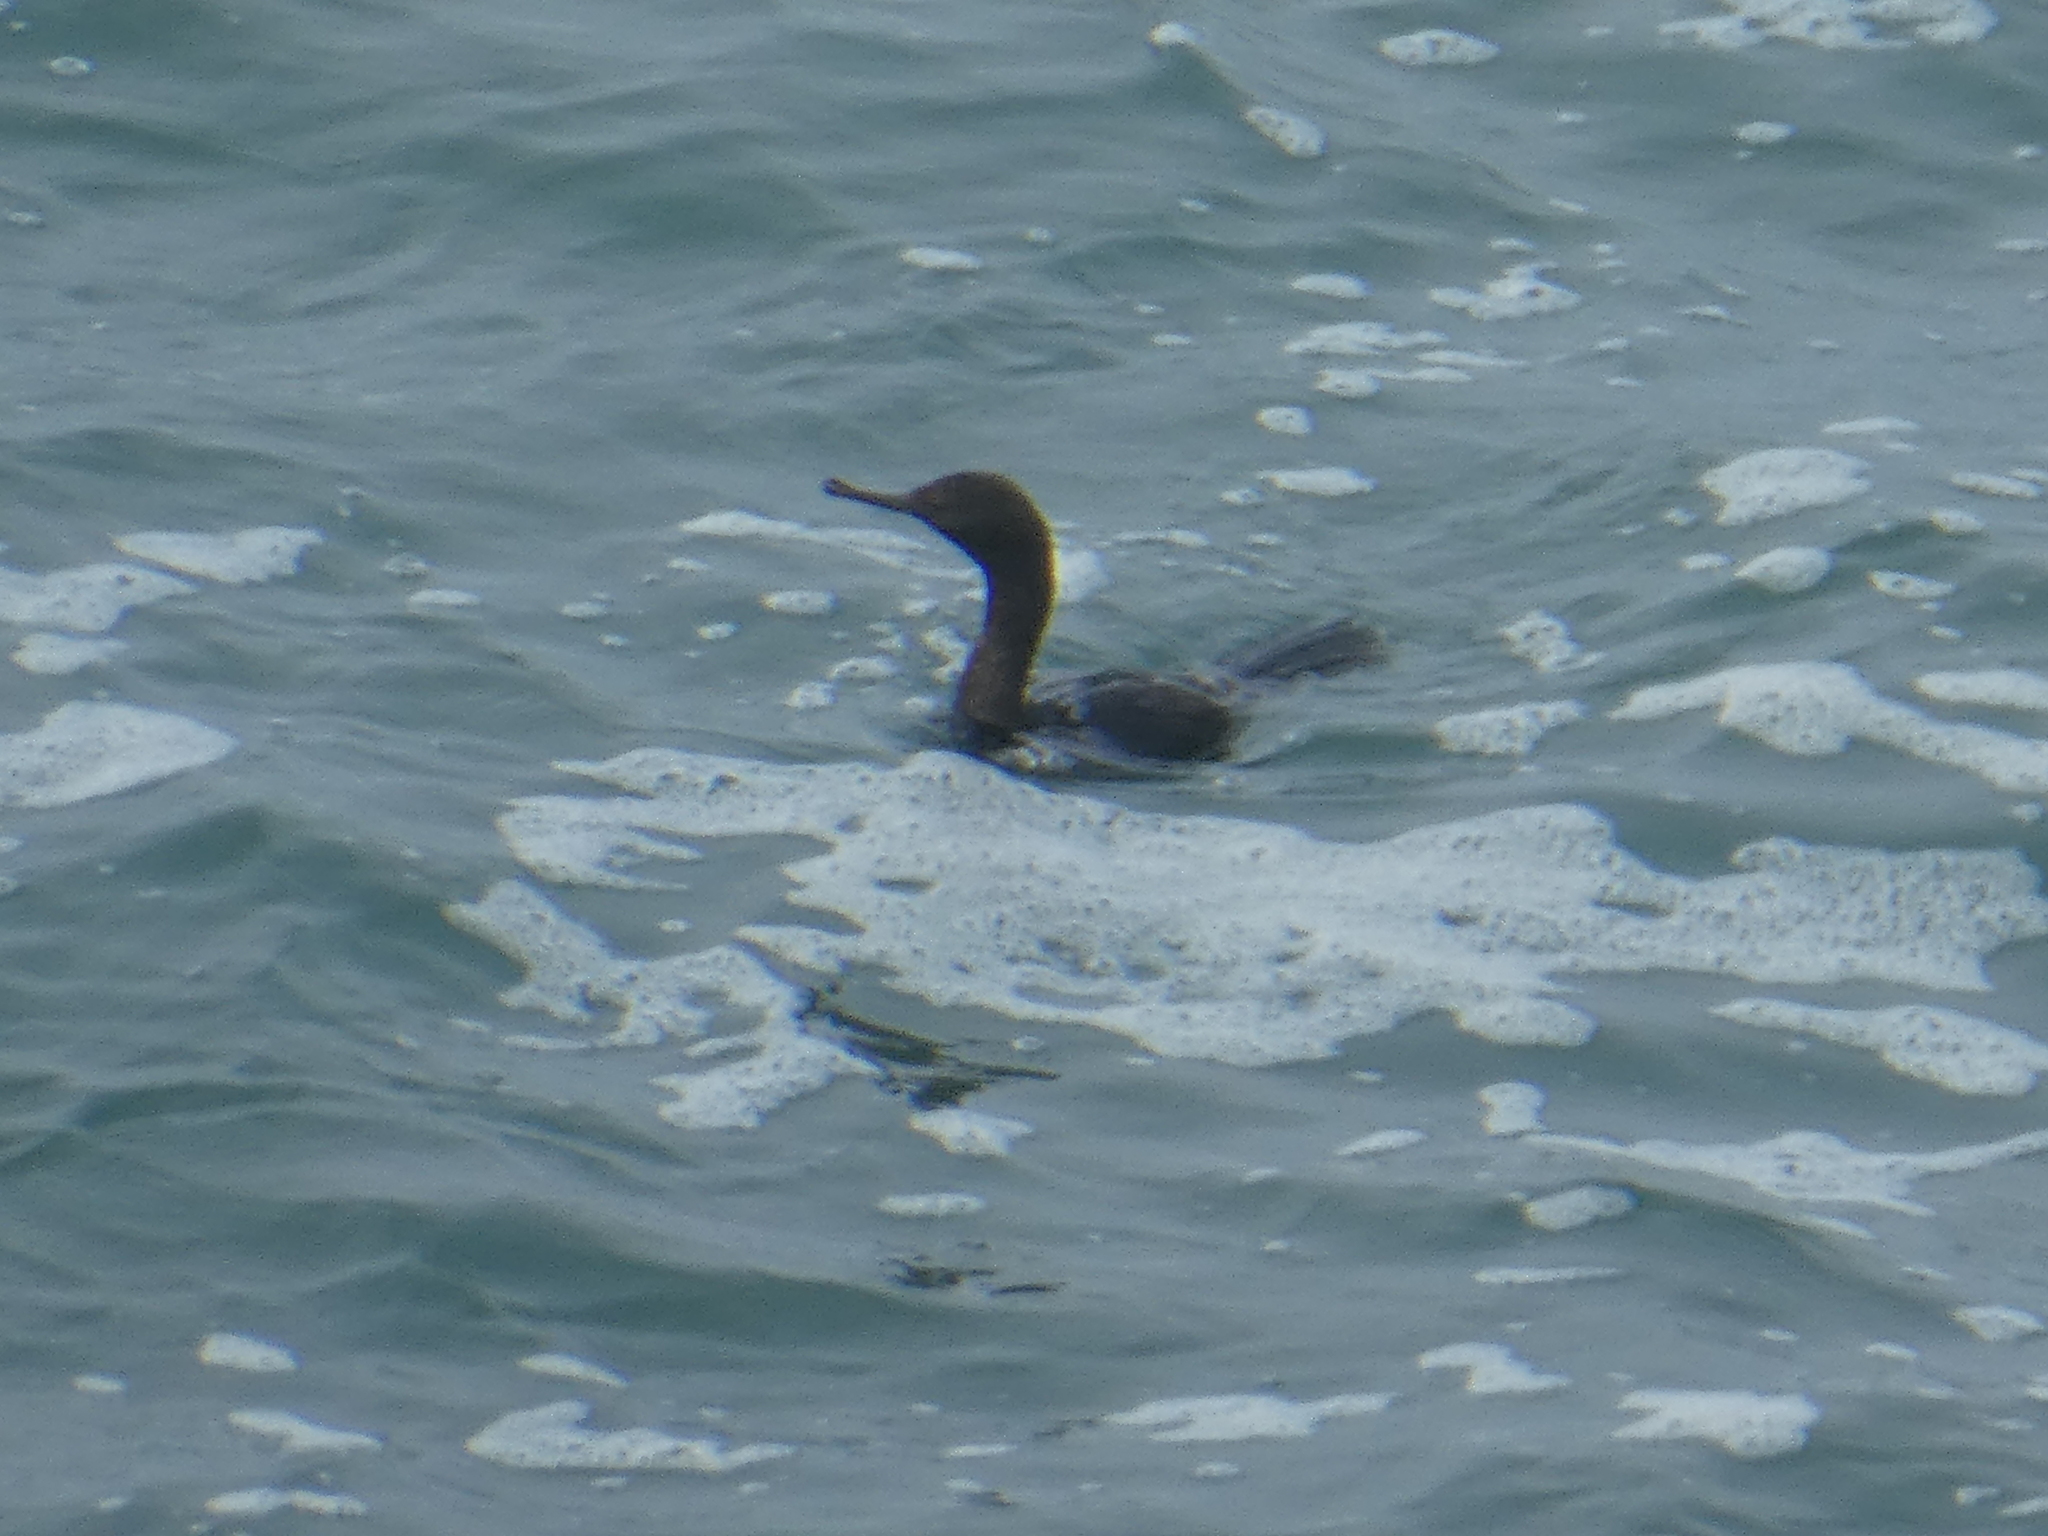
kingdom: Animalia
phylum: Chordata
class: Aves
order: Suliformes
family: Phalacrocoracidae
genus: Phalacrocorax
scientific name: Phalacrocorax pelagicus
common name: Pelagic cormorant
